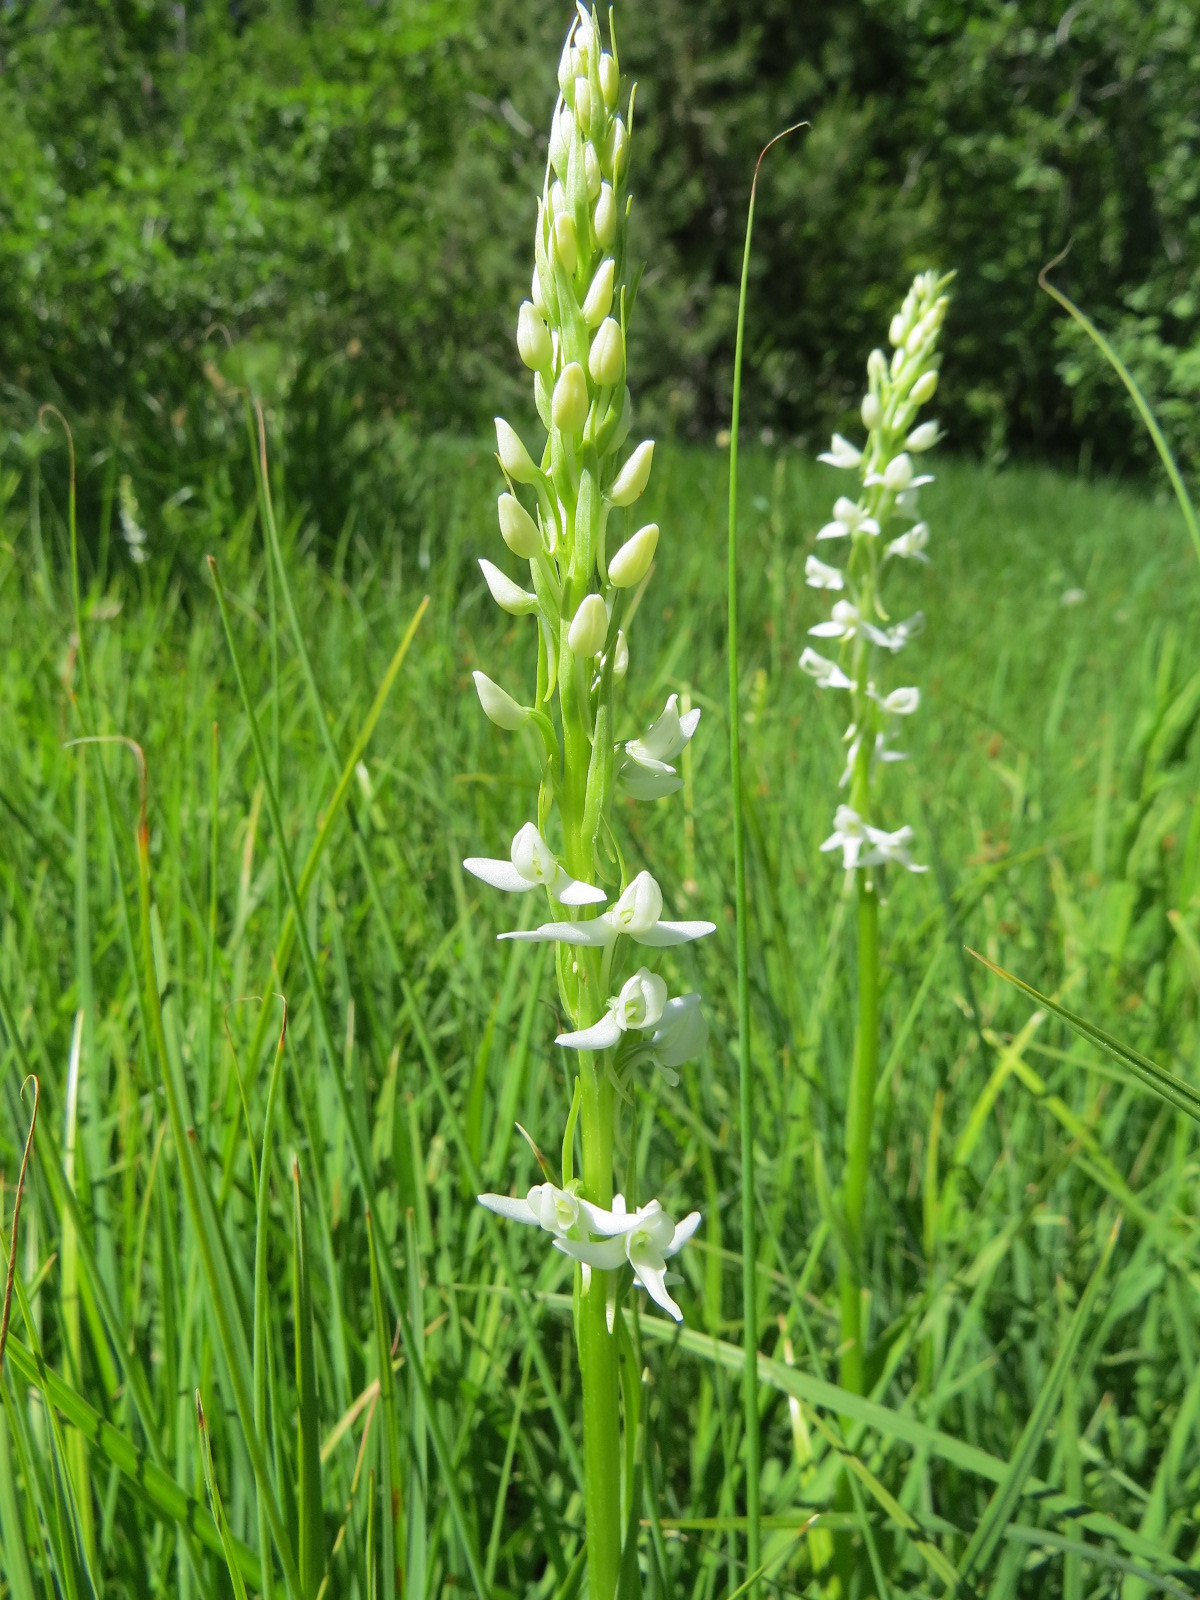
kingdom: Plantae
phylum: Tracheophyta
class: Liliopsida
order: Asparagales
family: Orchidaceae
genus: Platanthera
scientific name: Platanthera dilatata
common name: Bog candles
